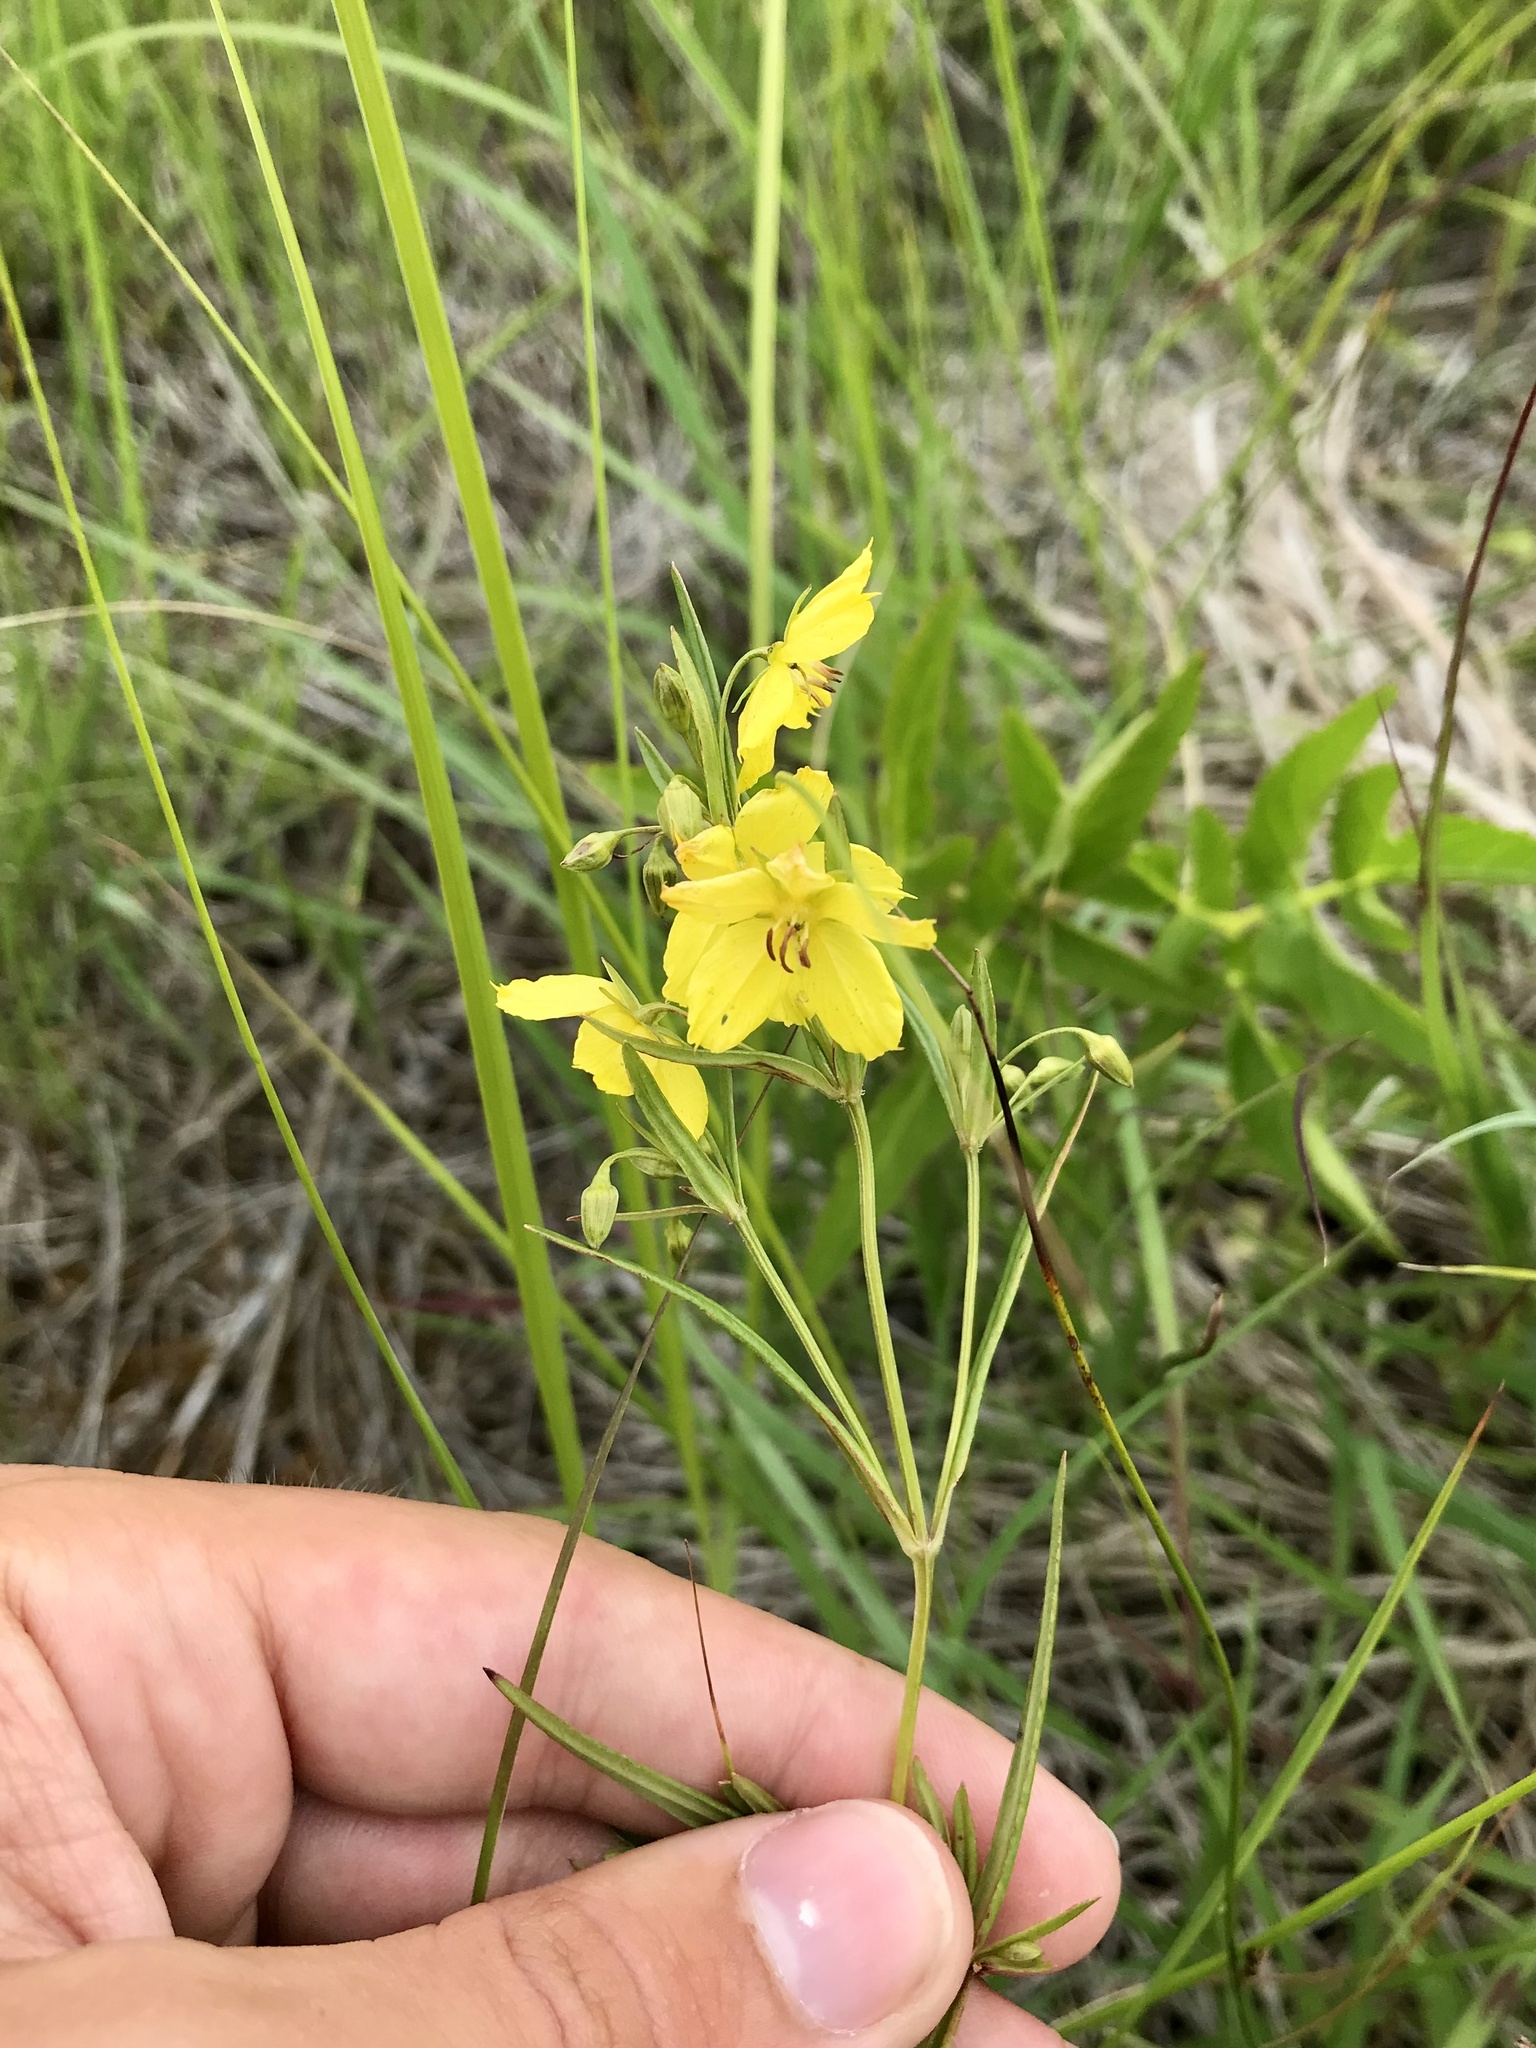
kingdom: Plantae
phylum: Tracheophyta
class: Magnoliopsida
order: Ericales
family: Primulaceae
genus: Lysimachia
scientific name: Lysimachia quadriflora
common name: Four-flowered loosestrife
